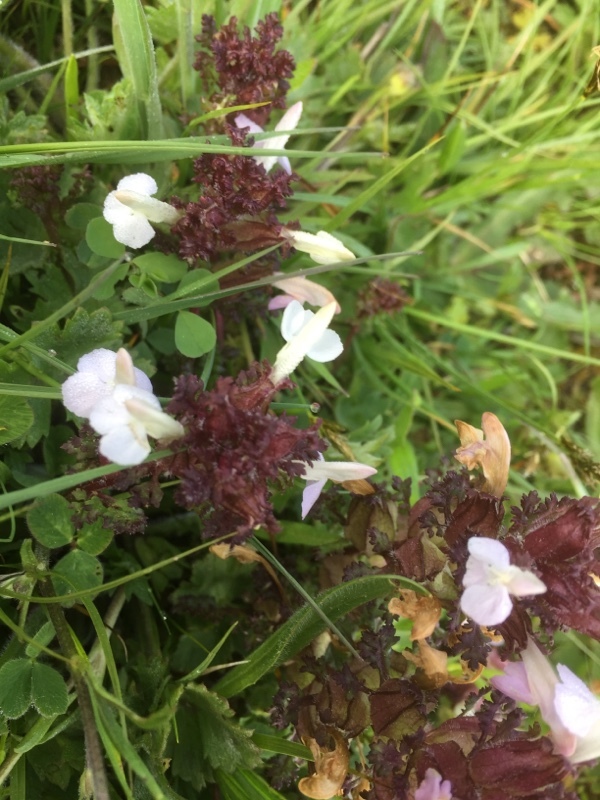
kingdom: Plantae
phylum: Tracheophyta
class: Magnoliopsida
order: Lamiales
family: Orobanchaceae
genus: Pedicularis
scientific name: Pedicularis sylvatica
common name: Lousewort
